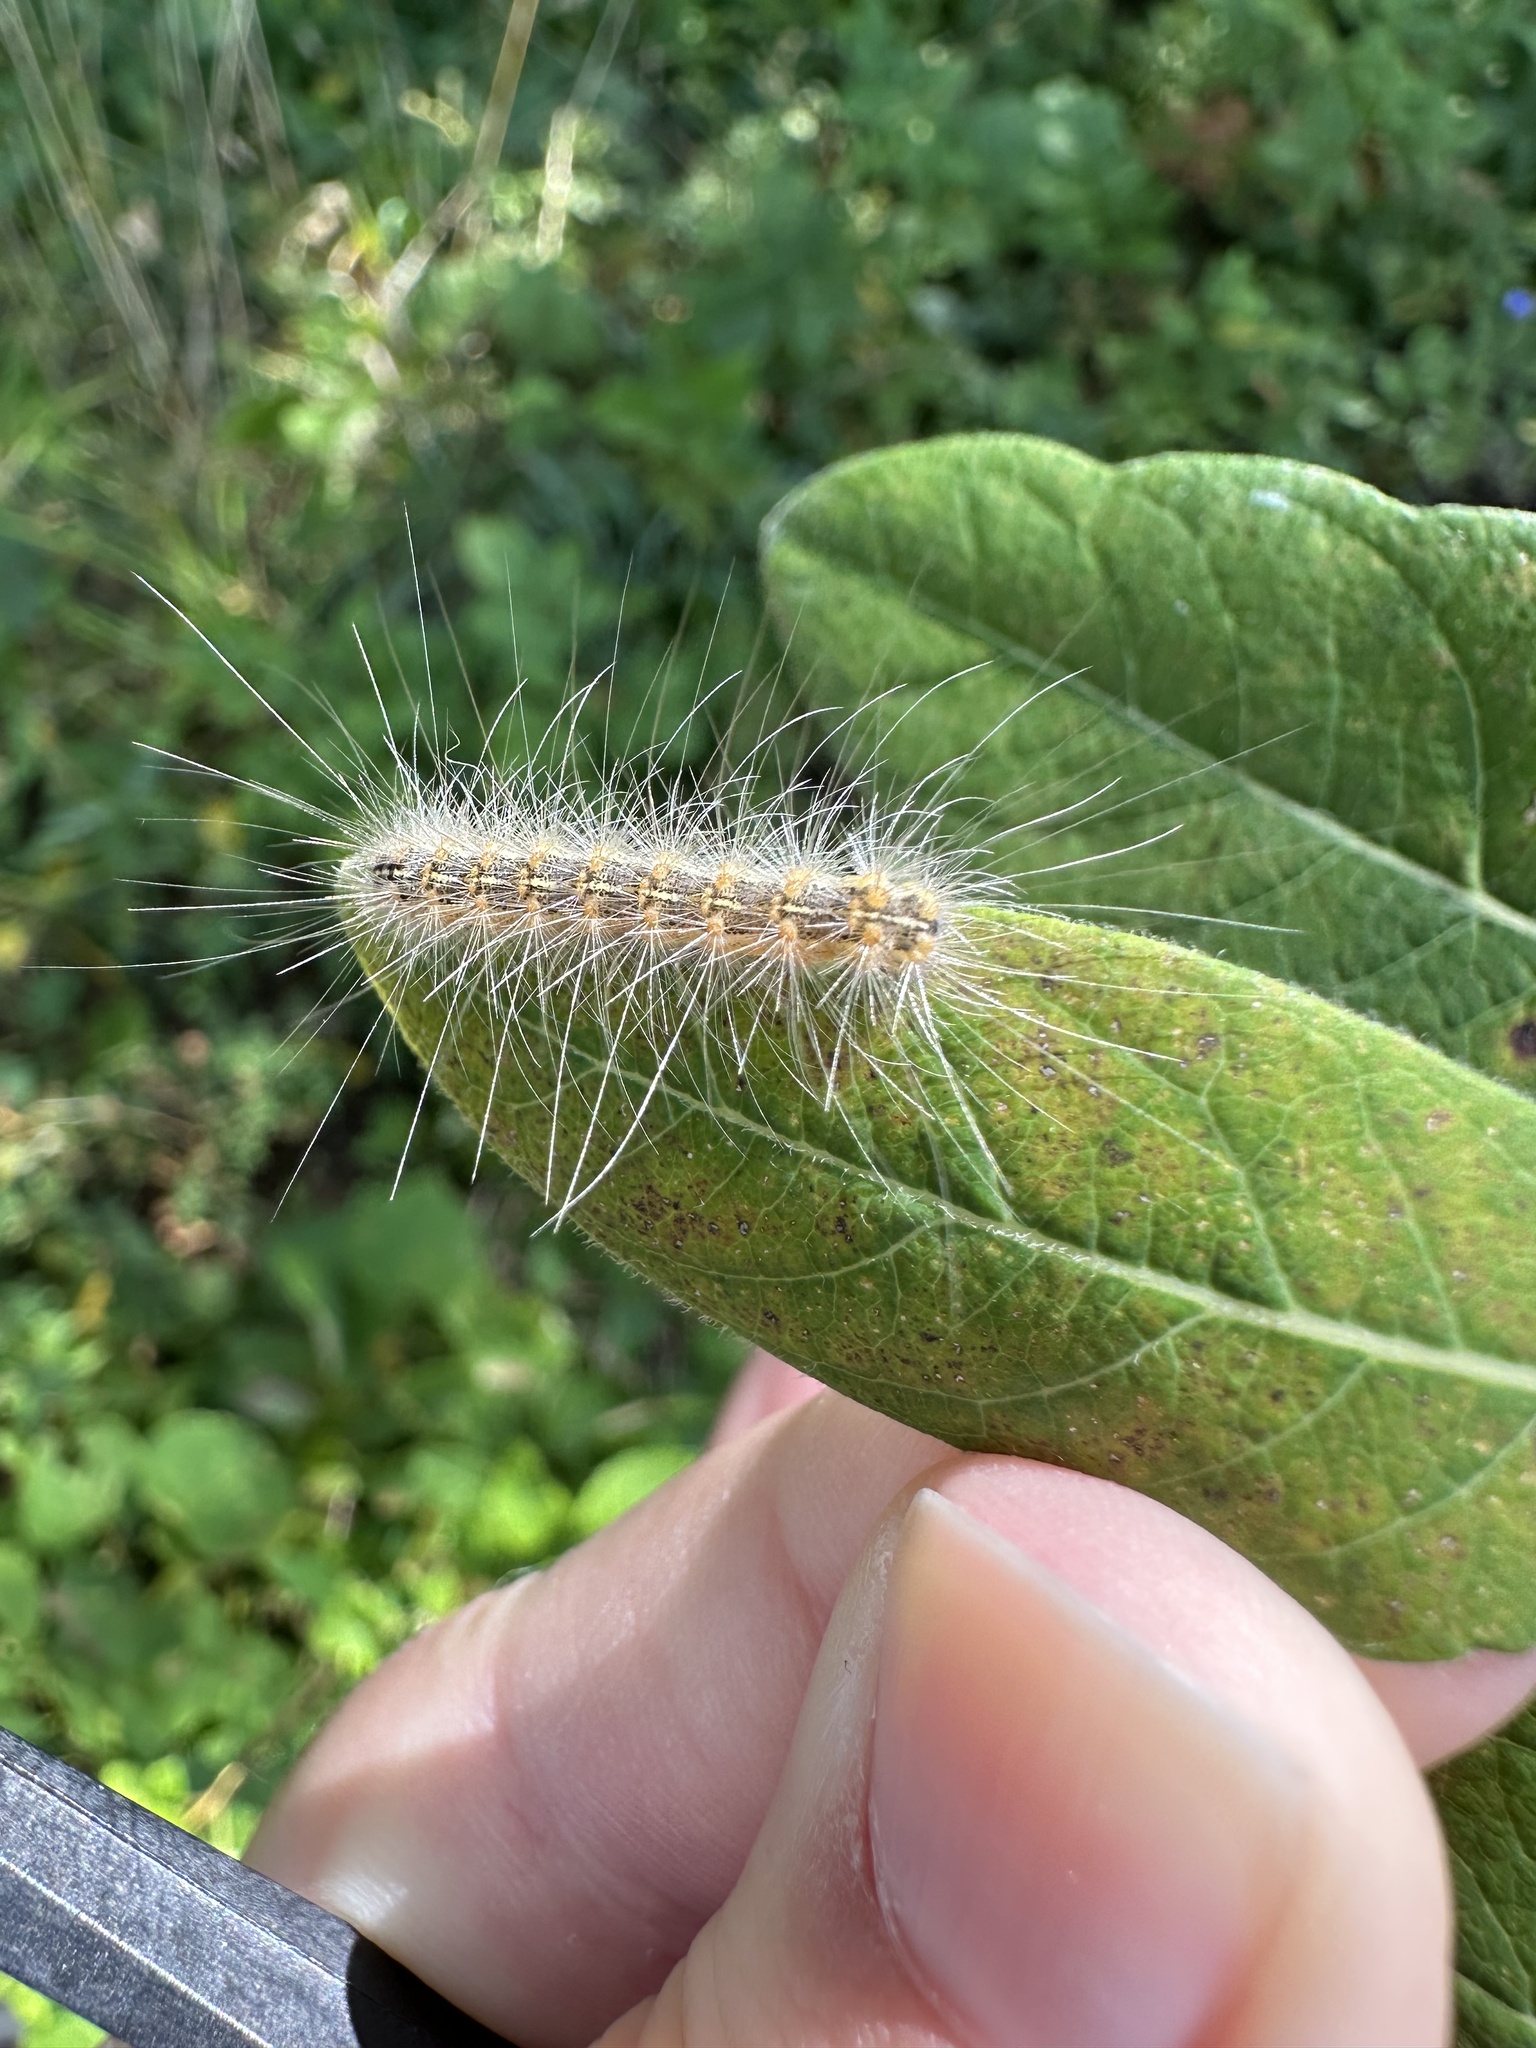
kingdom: Animalia
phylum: Arthropoda
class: Insecta
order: Lepidoptera
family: Erebidae
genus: Hyphantria
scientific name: Hyphantria cunea
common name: American white moth
